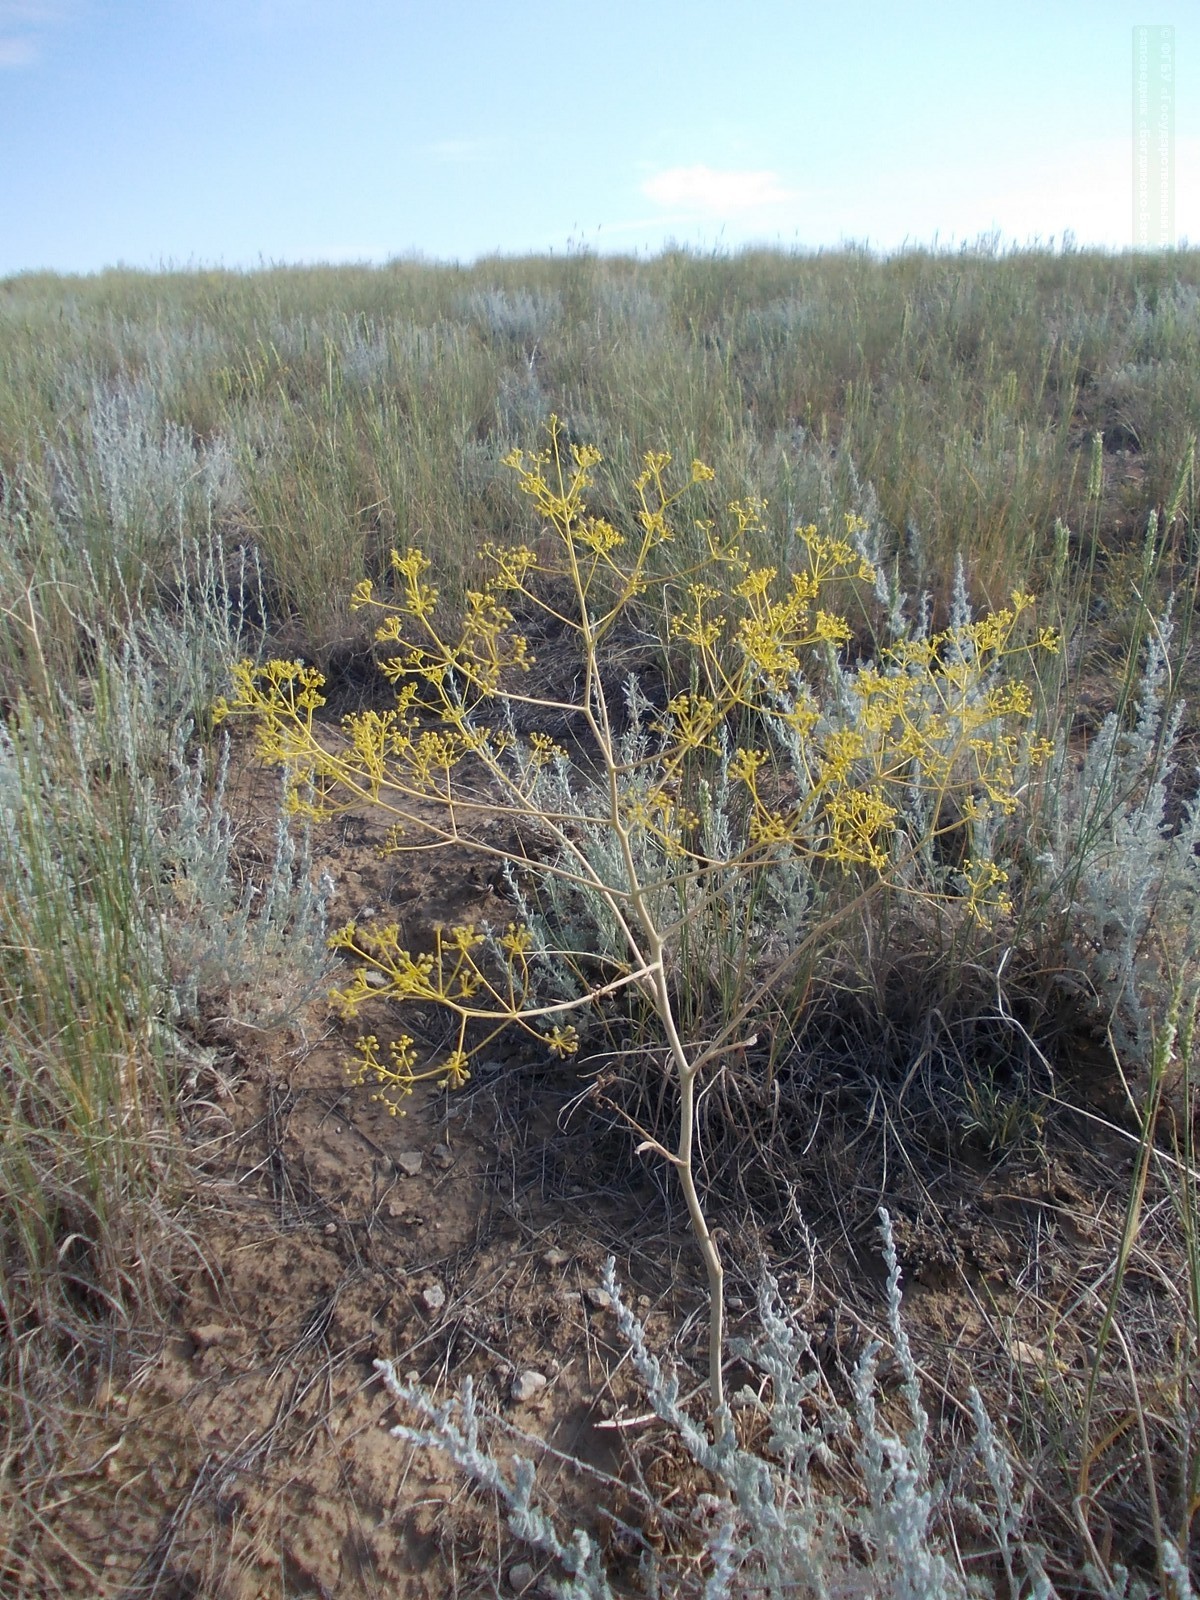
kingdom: Plantae
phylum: Tracheophyta
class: Magnoliopsida
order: Apiales
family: Apiaceae
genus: Ferula
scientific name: Ferula caspica
